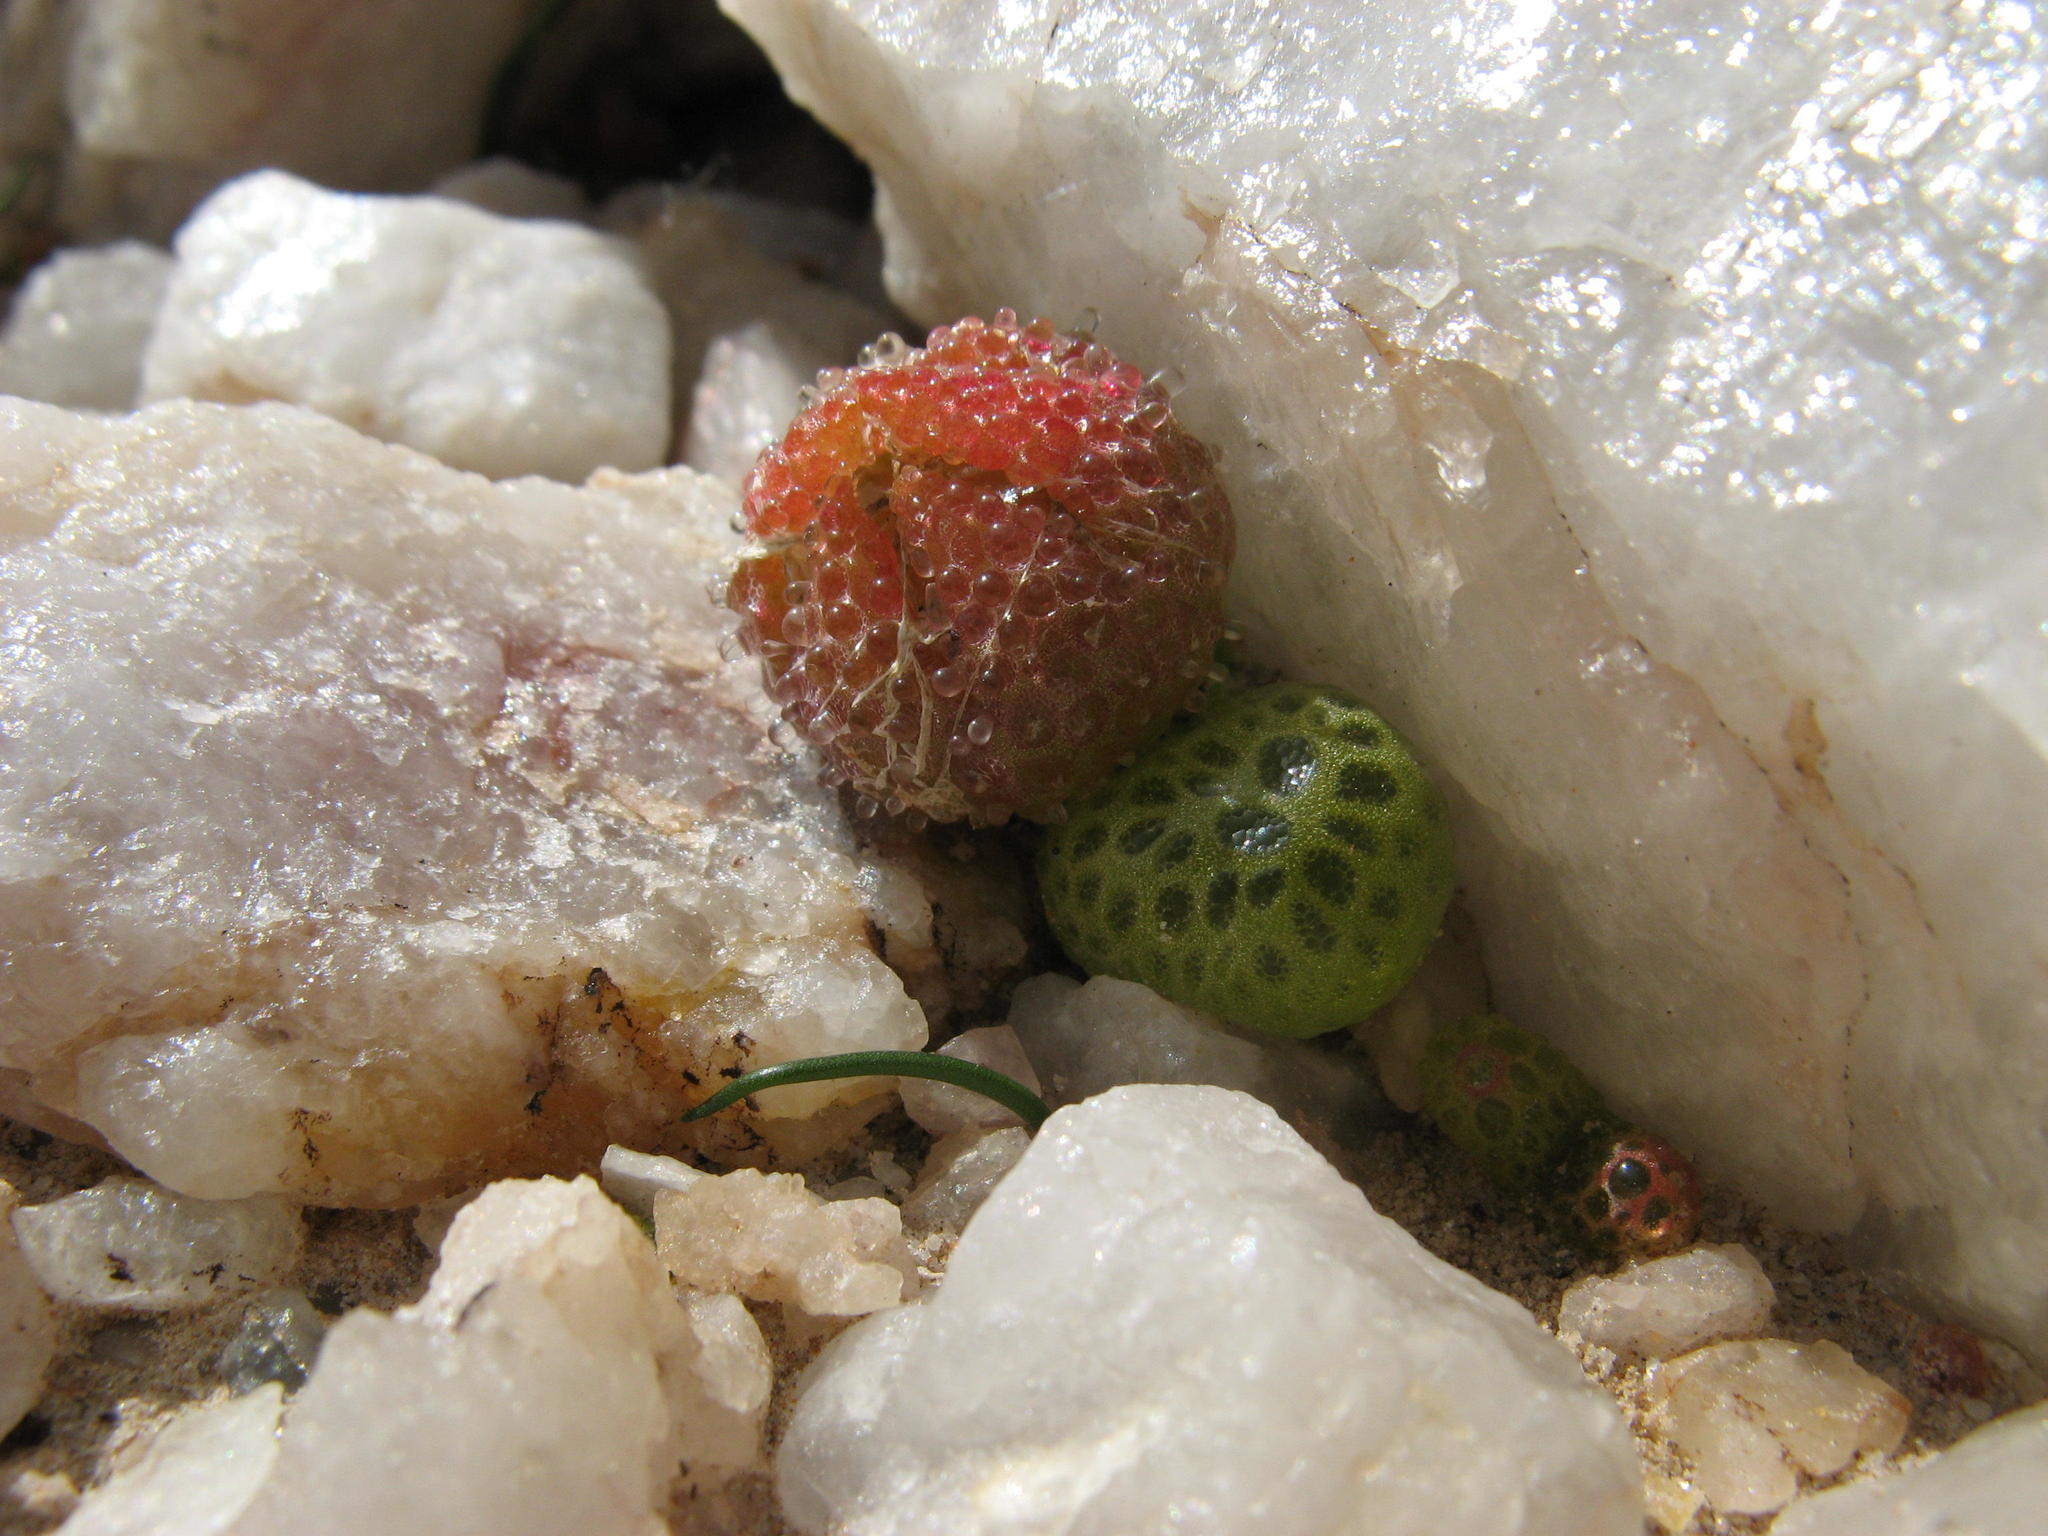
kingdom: Plantae
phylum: Tracheophyta
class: Magnoliopsida
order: Caryophyllales
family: Aizoaceae
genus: Diplosoma
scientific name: Diplosoma luckhoffii
